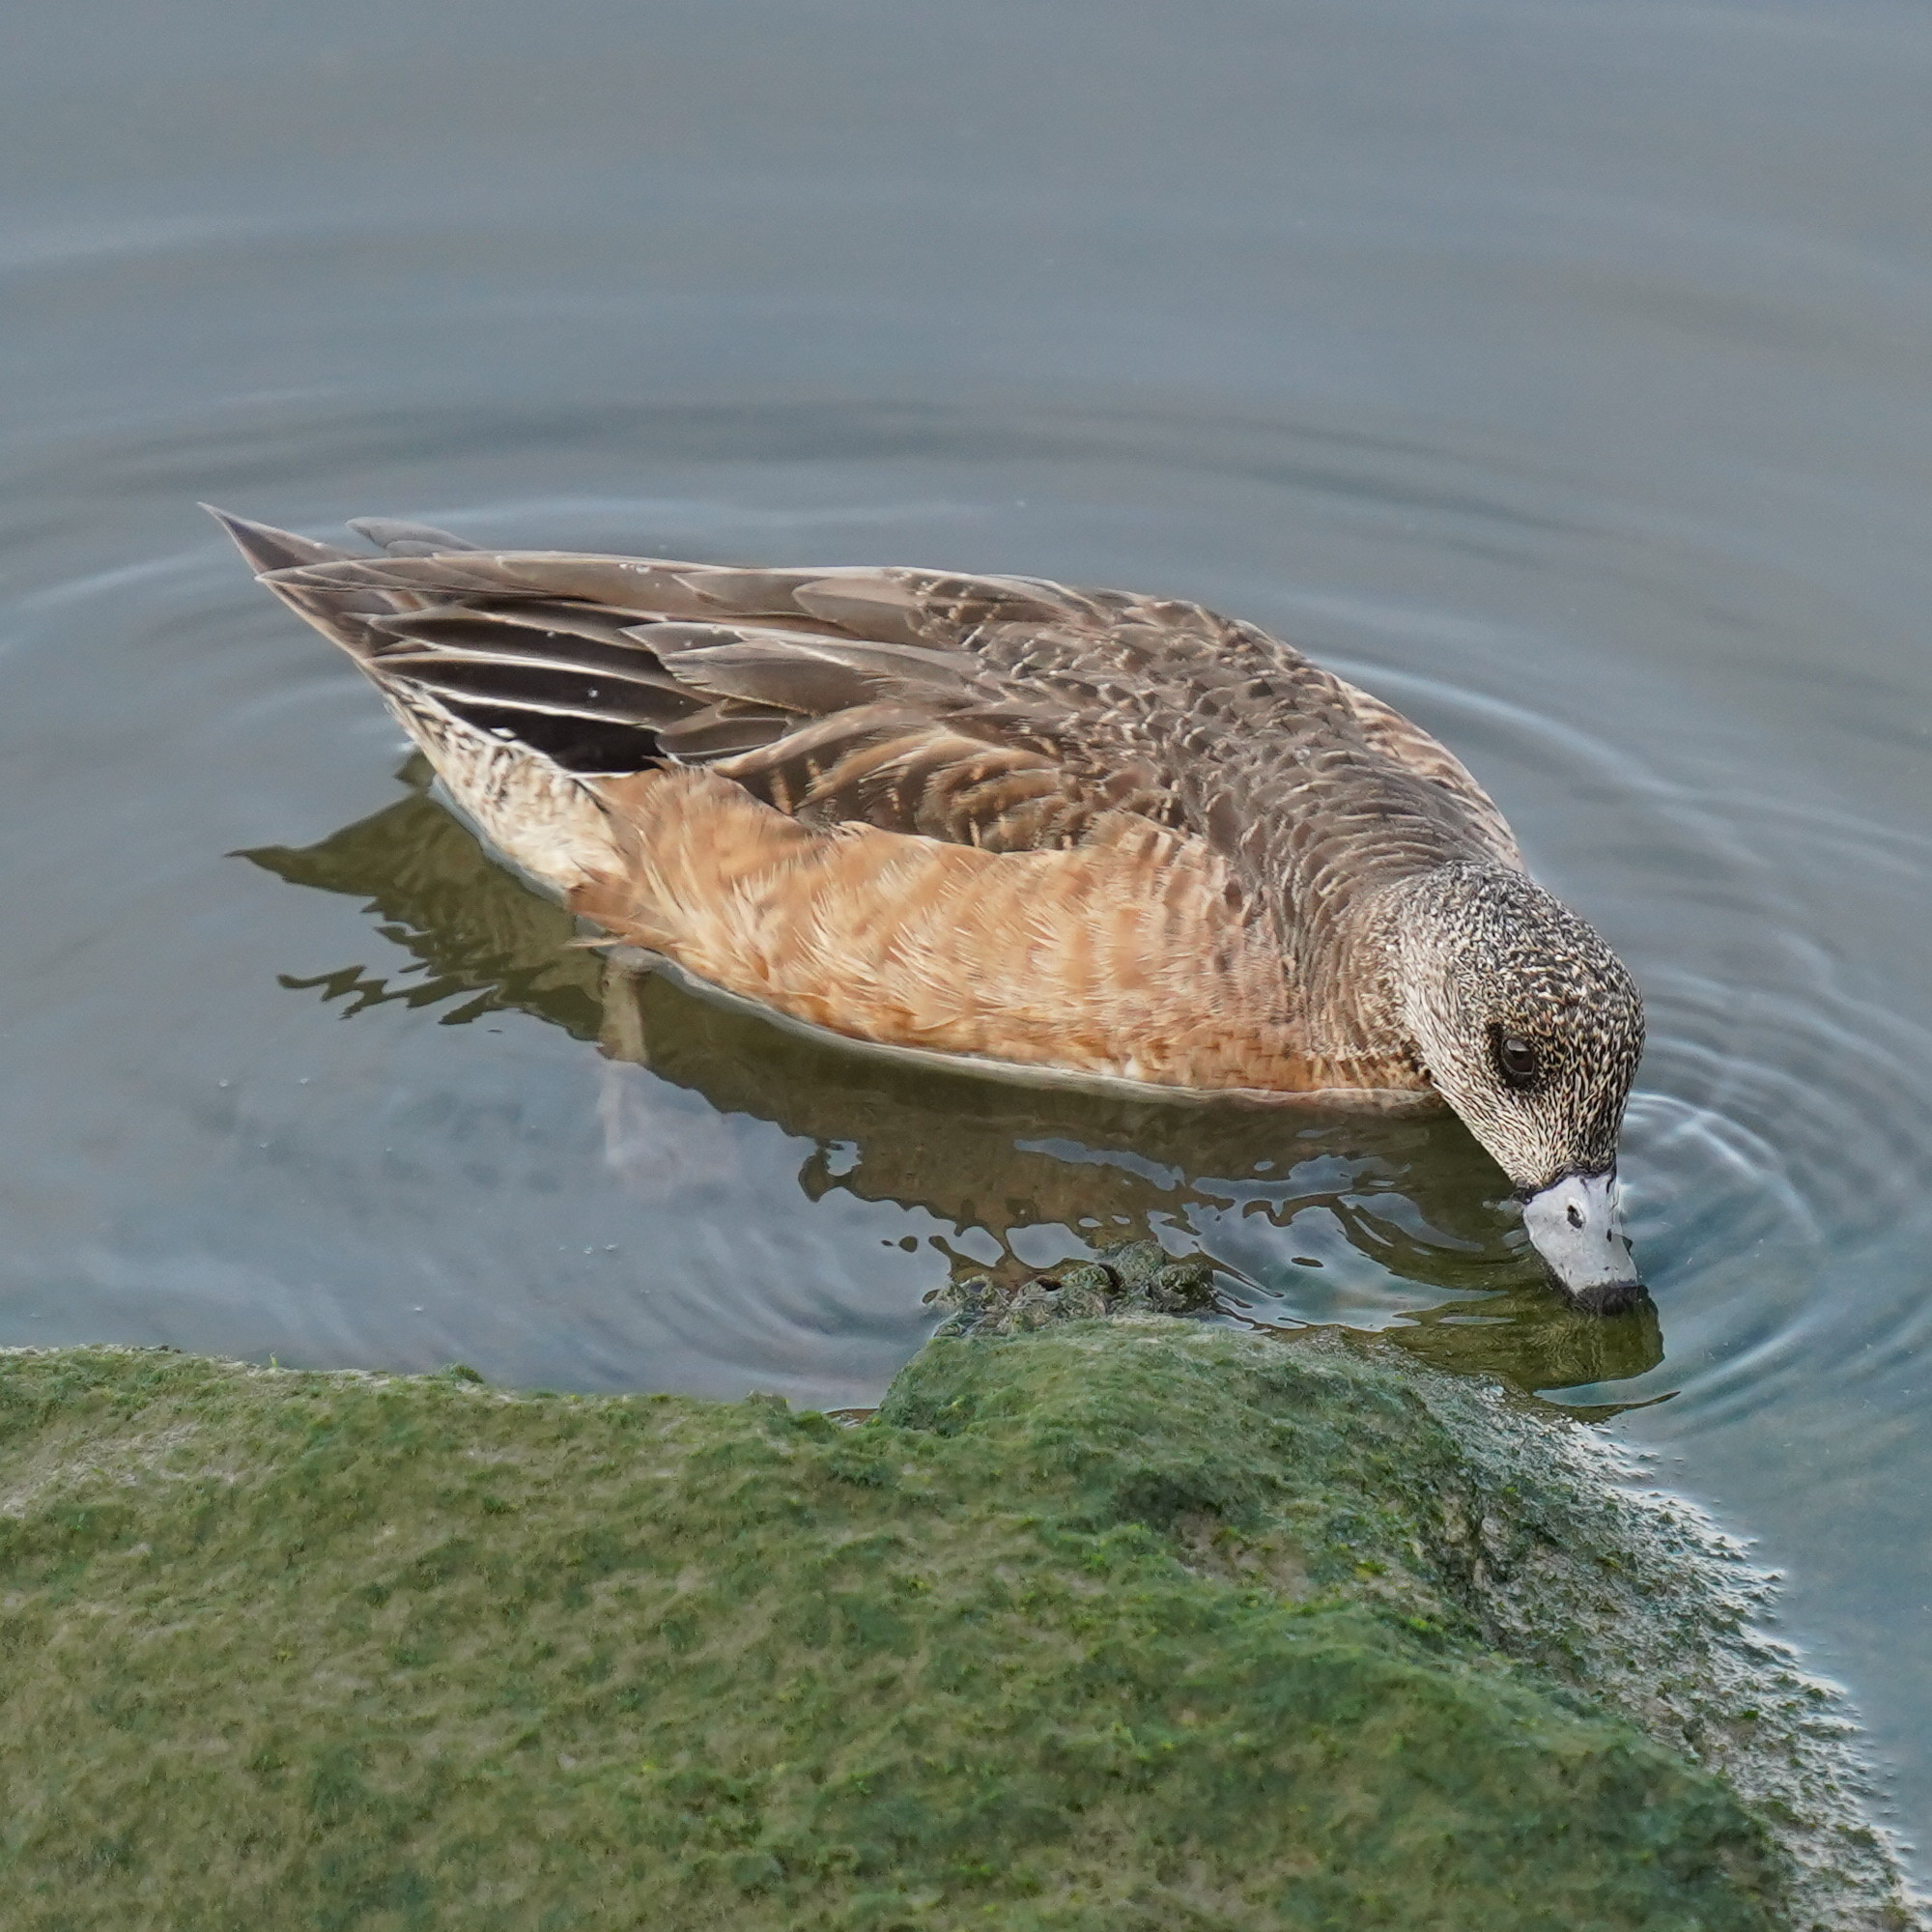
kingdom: Animalia
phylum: Chordata
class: Aves
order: Anseriformes
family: Anatidae
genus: Mareca
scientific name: Mareca americana
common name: American wigeon
